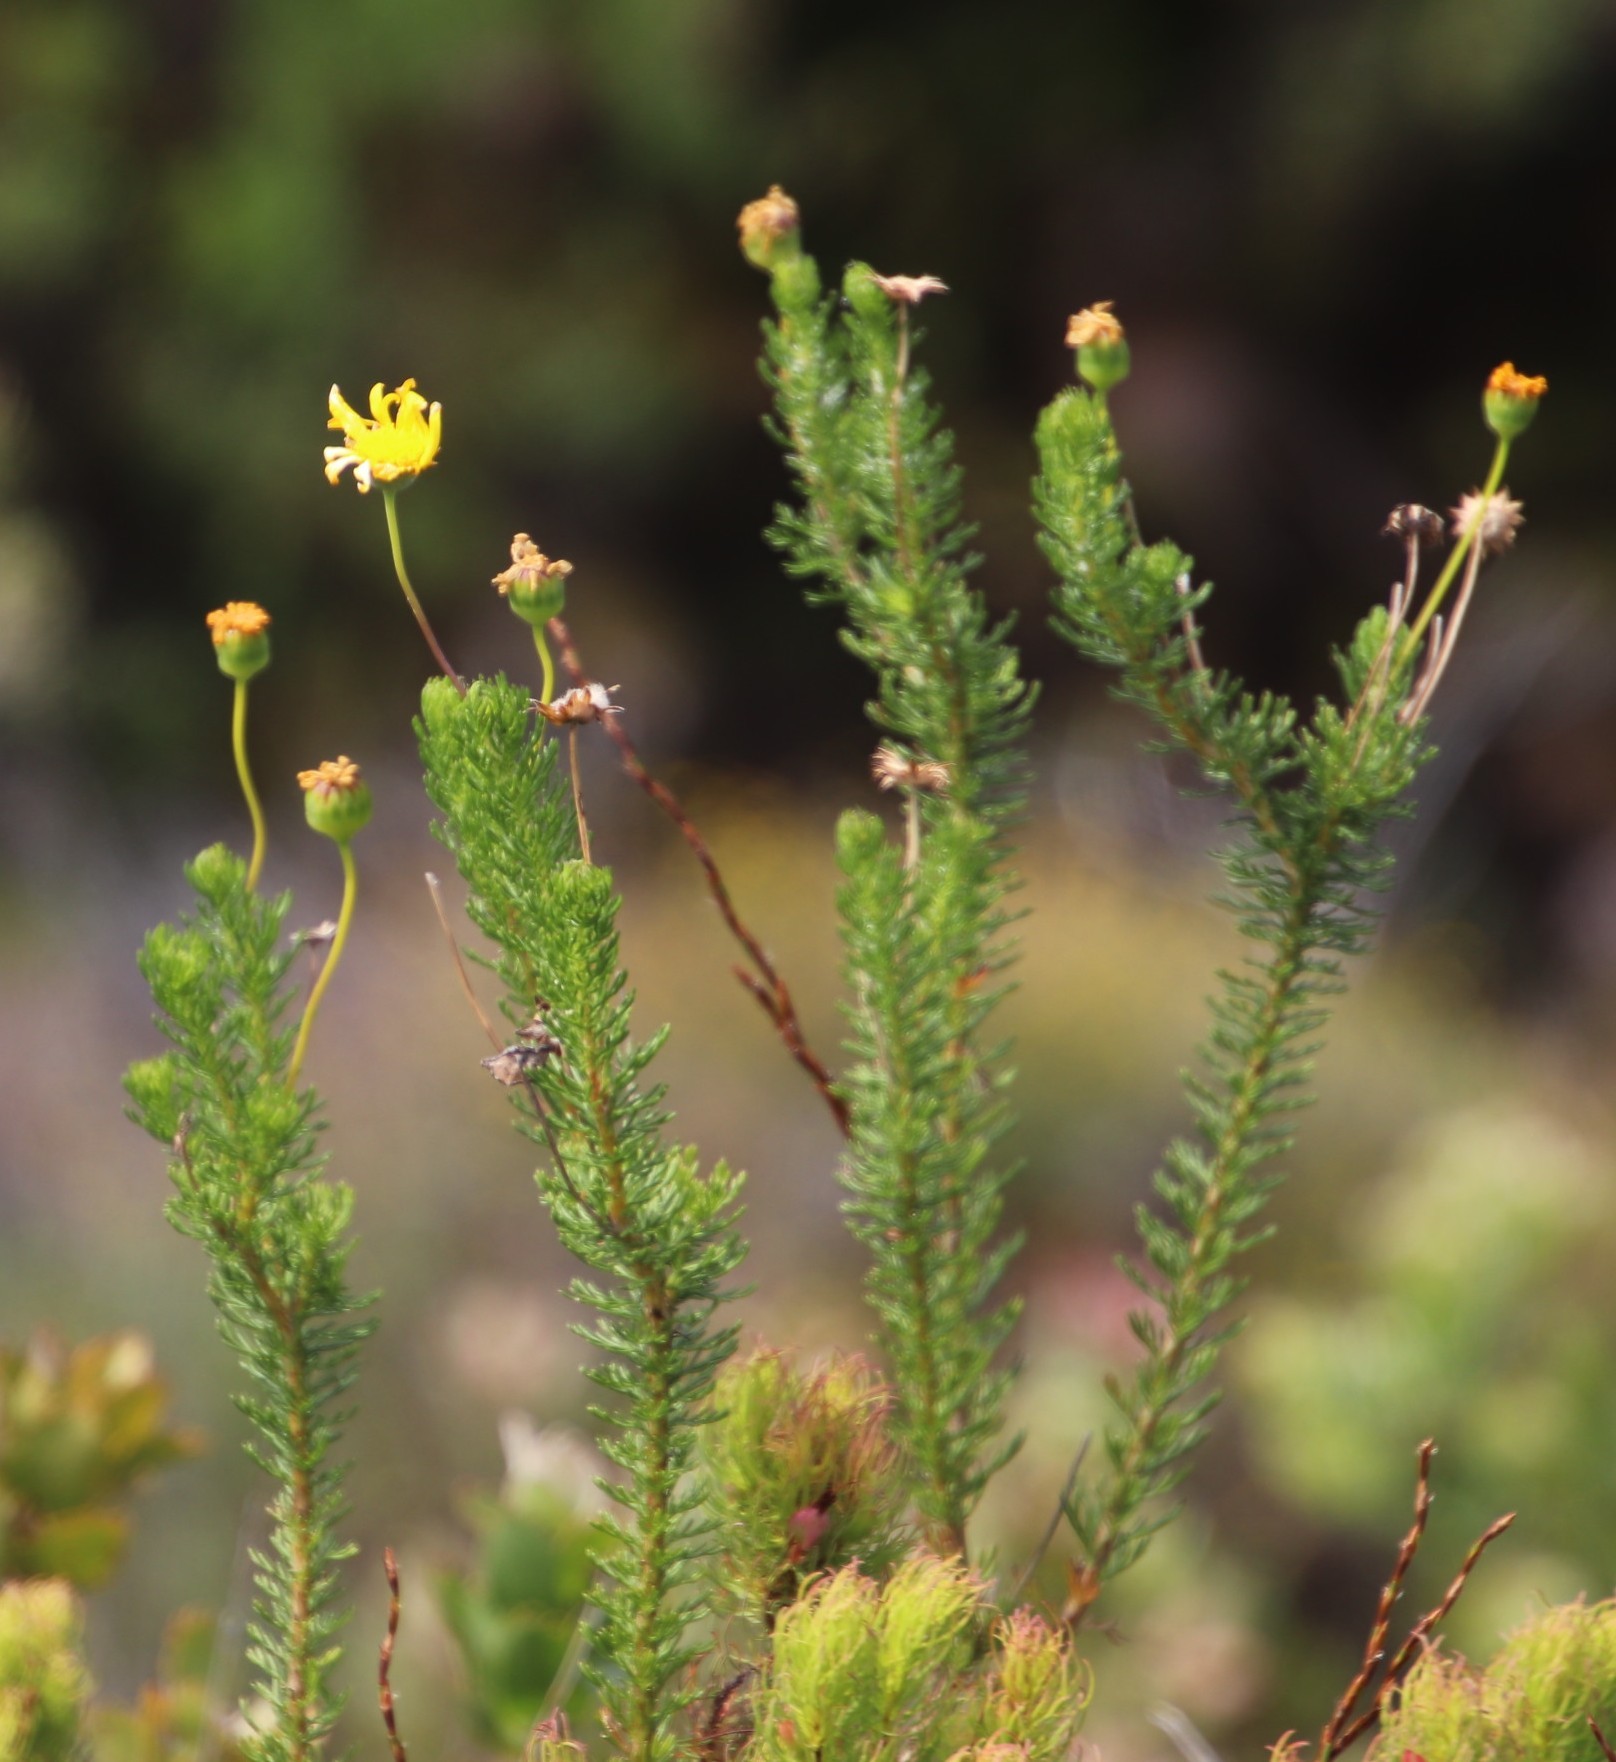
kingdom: Plantae
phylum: Tracheophyta
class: Magnoliopsida
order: Asterales
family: Asteraceae
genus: Euryops
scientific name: Euryops abrotanifolius
